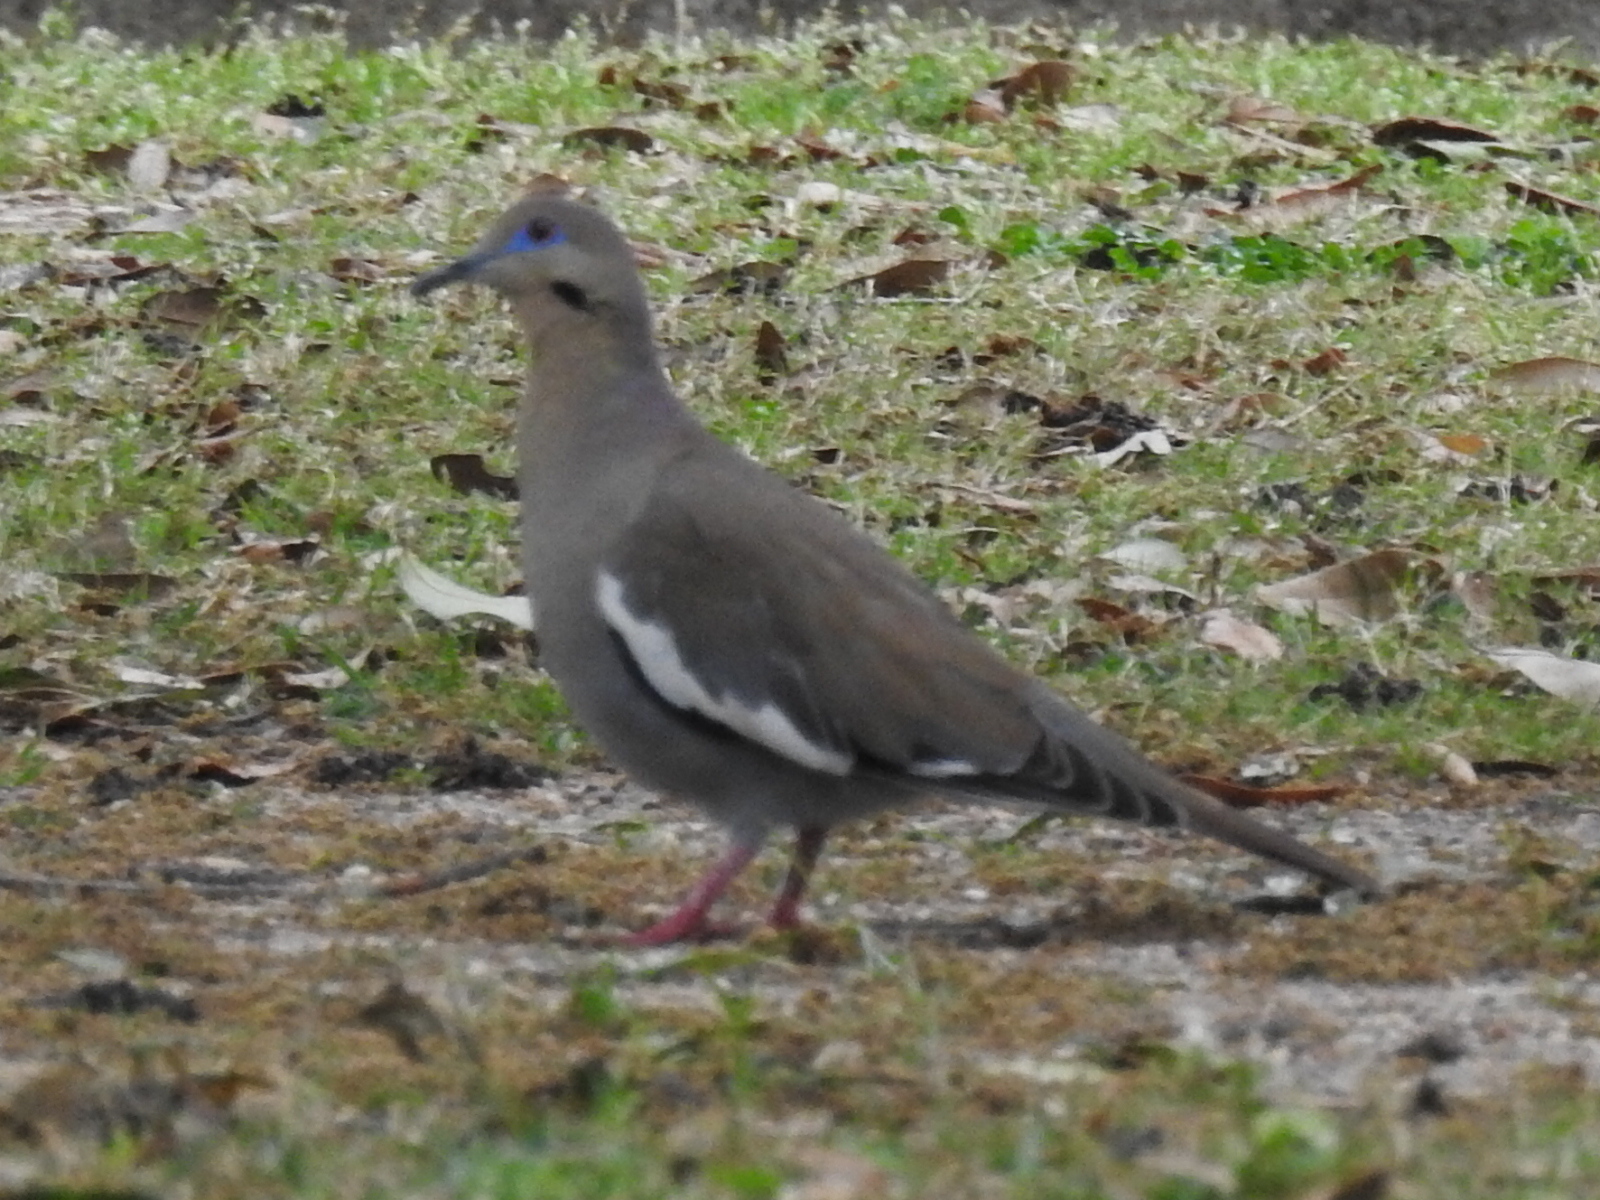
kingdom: Animalia
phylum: Chordata
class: Aves
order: Columbiformes
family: Columbidae
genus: Zenaida
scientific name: Zenaida asiatica
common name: White-winged dove
